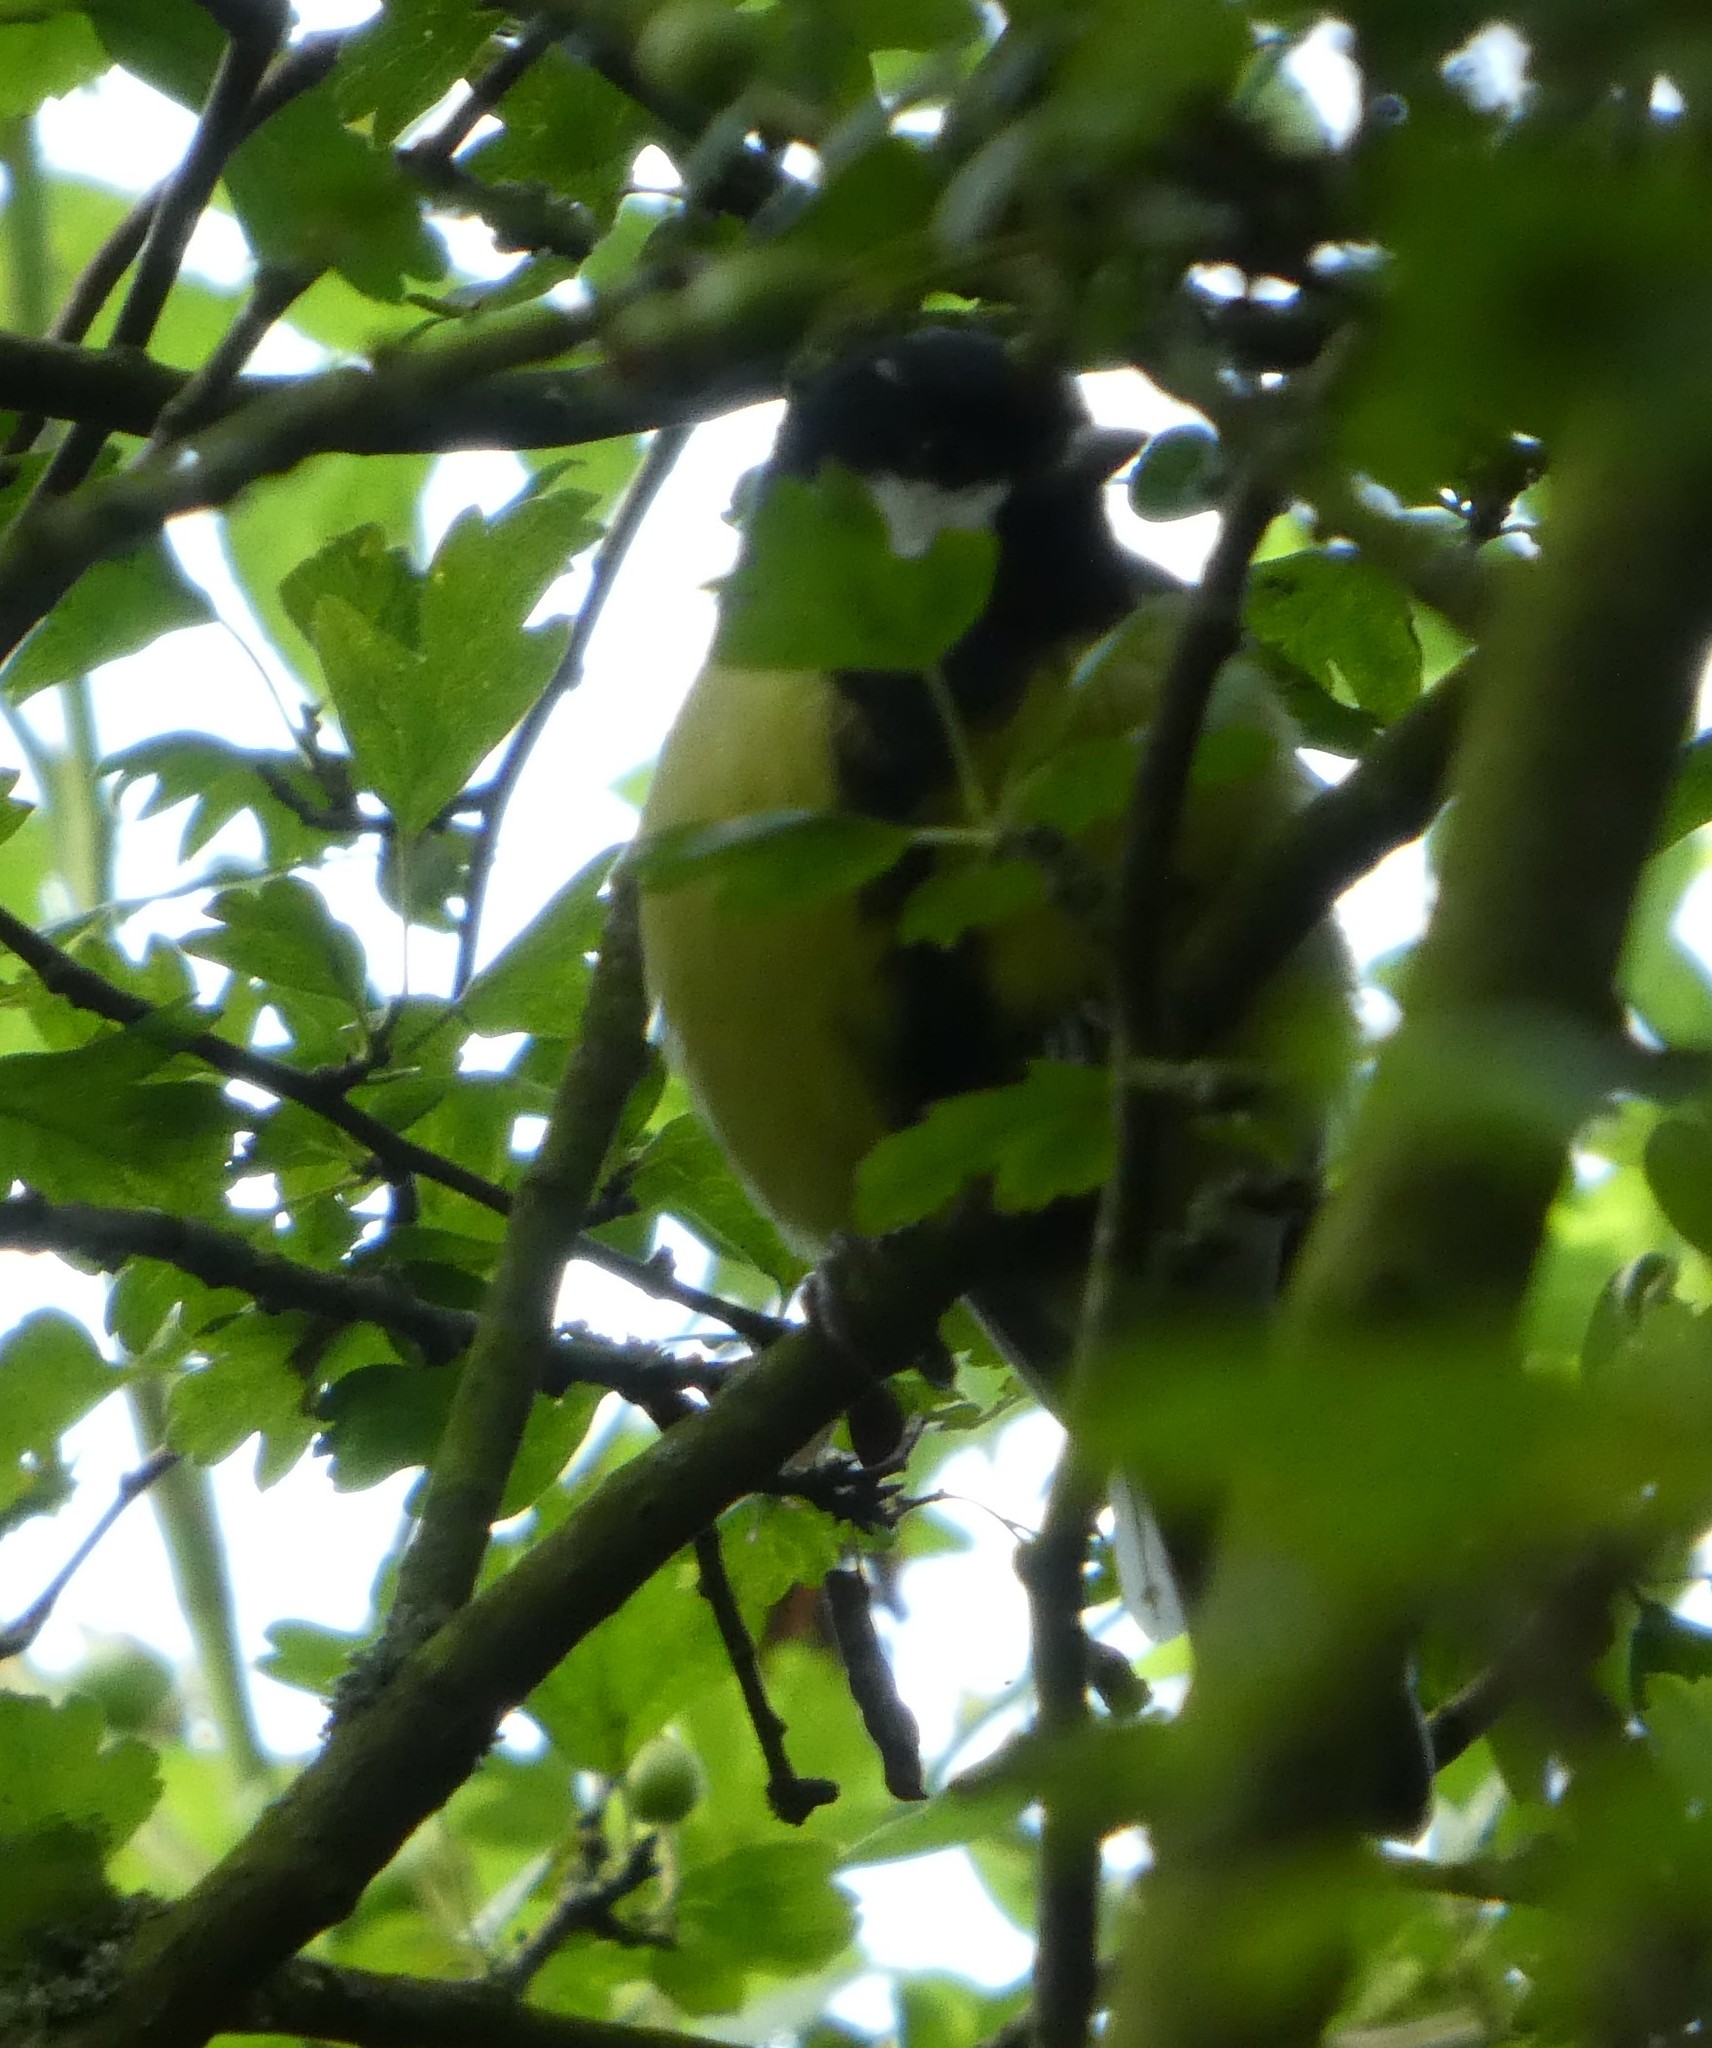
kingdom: Animalia
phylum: Chordata
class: Aves
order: Passeriformes
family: Paridae
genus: Parus
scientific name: Parus major
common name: Great tit
